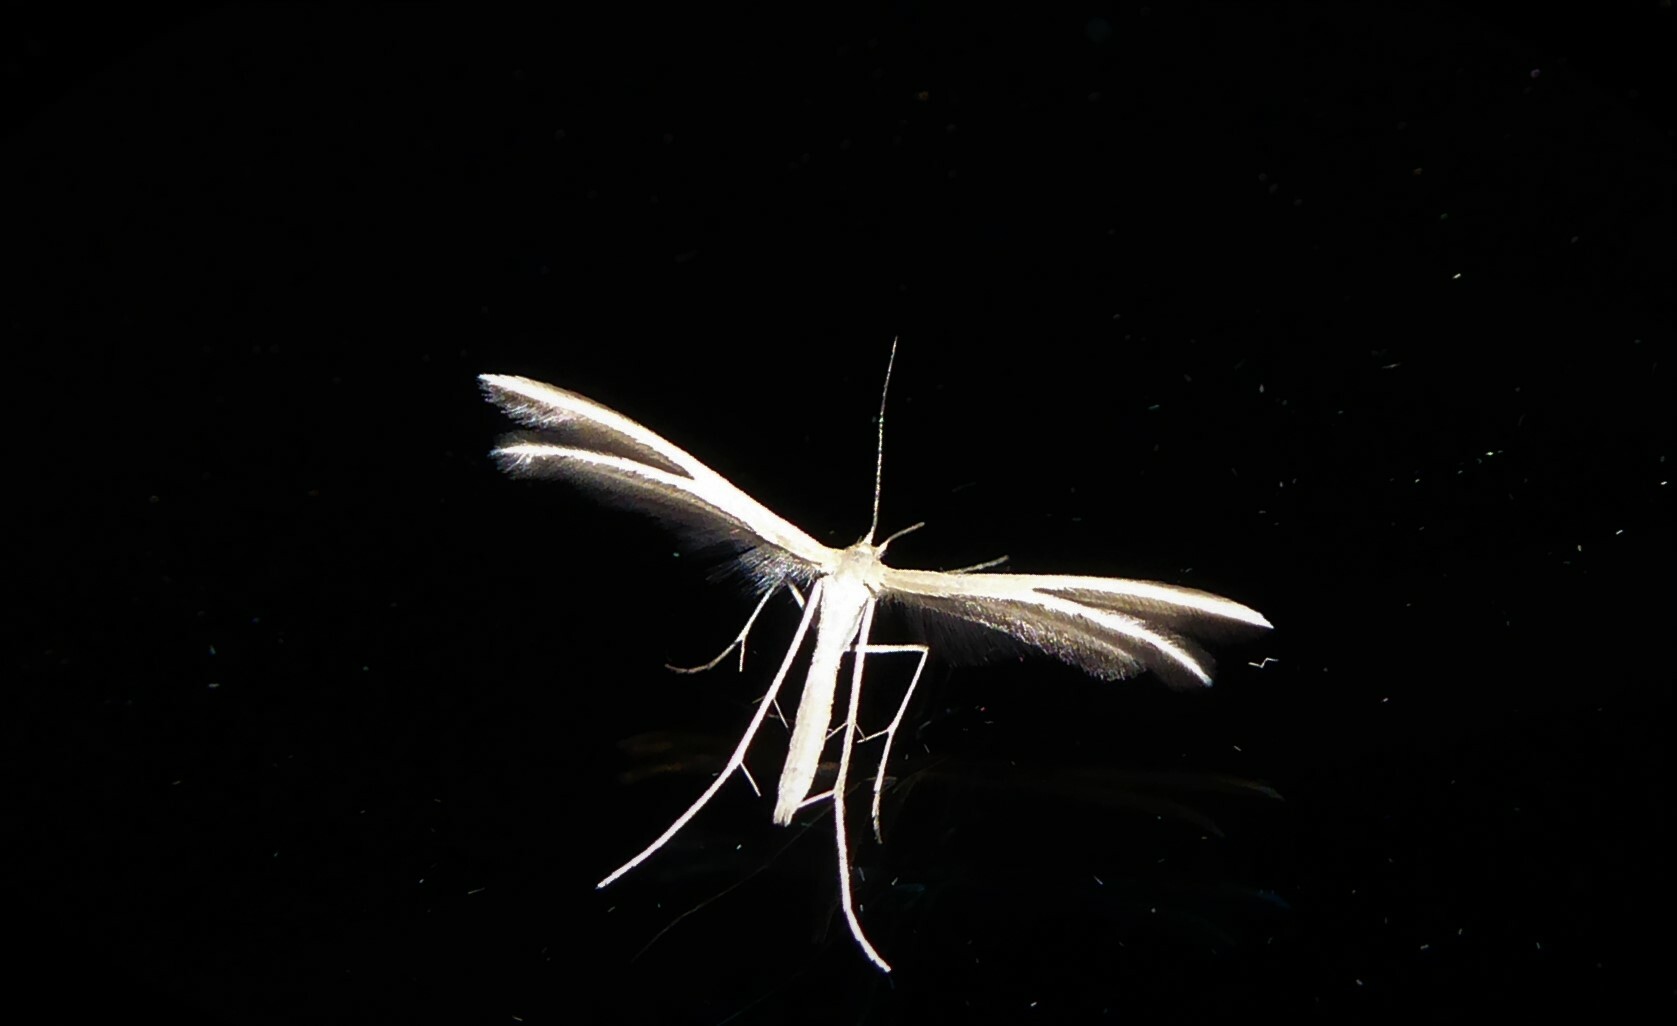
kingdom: Animalia
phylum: Arthropoda
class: Insecta
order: Lepidoptera
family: Pterophoridae
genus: Pterophorus
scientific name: Pterophorus innotatalis
